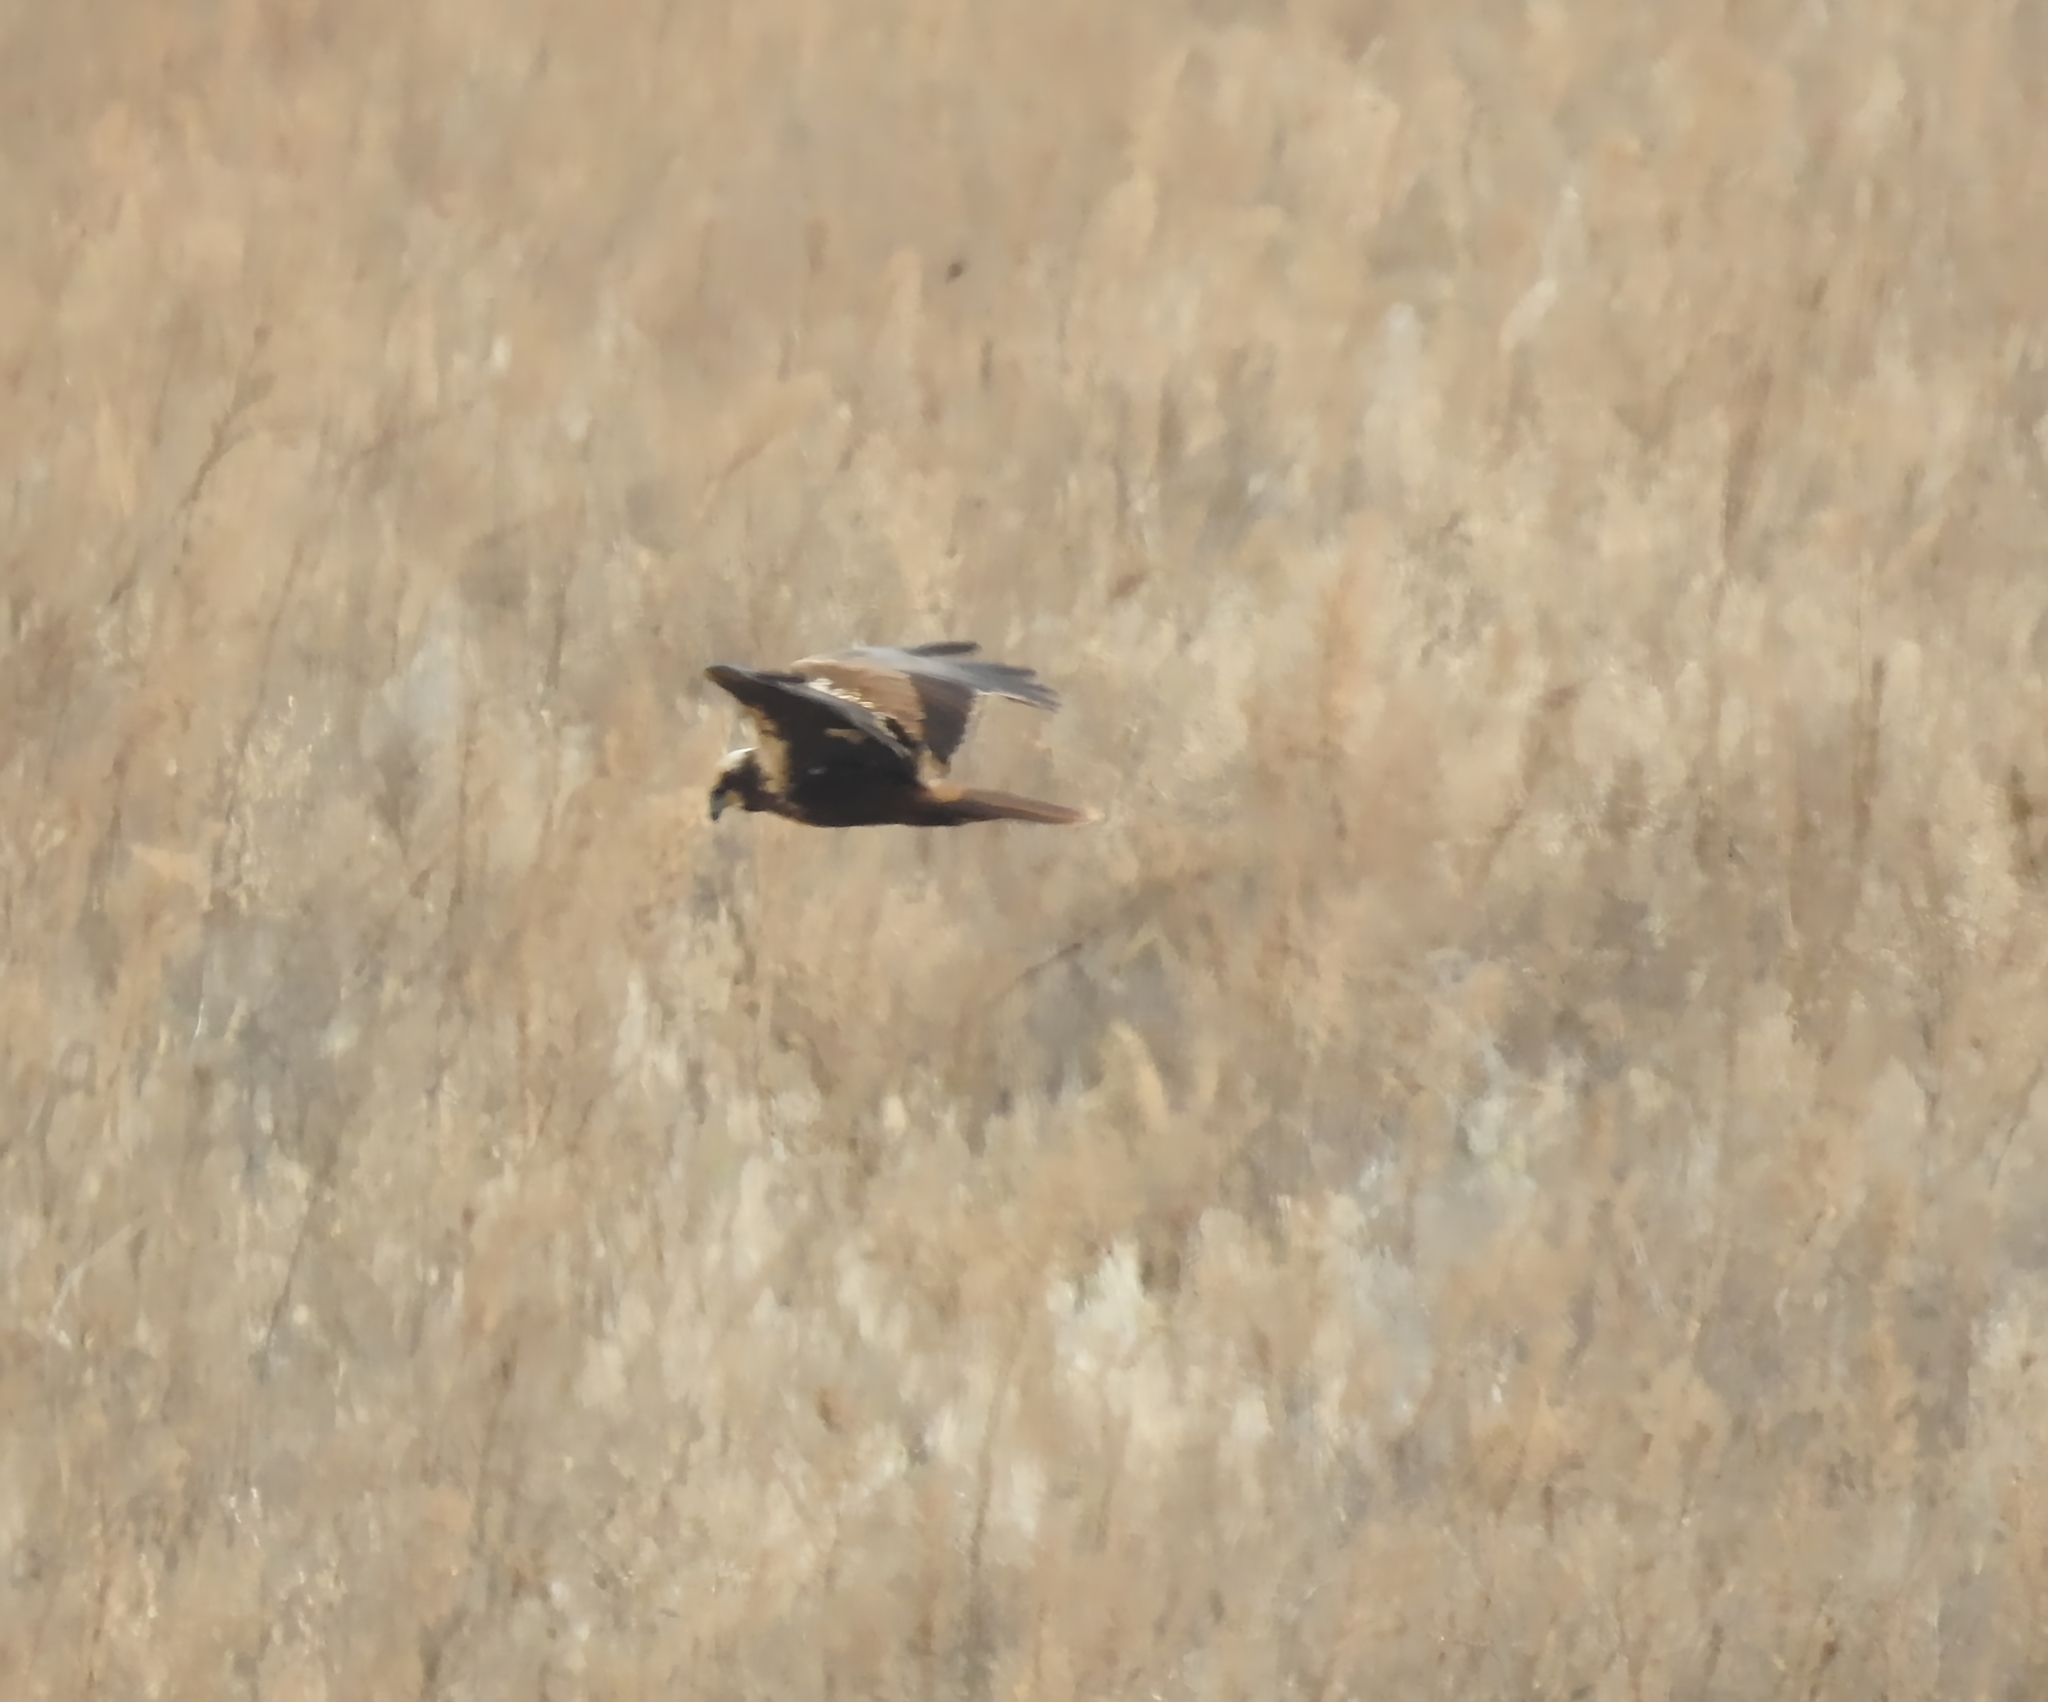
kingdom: Animalia
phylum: Chordata
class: Aves
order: Accipitriformes
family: Accipitridae
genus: Circus
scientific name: Circus aeruginosus
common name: Western marsh harrier
